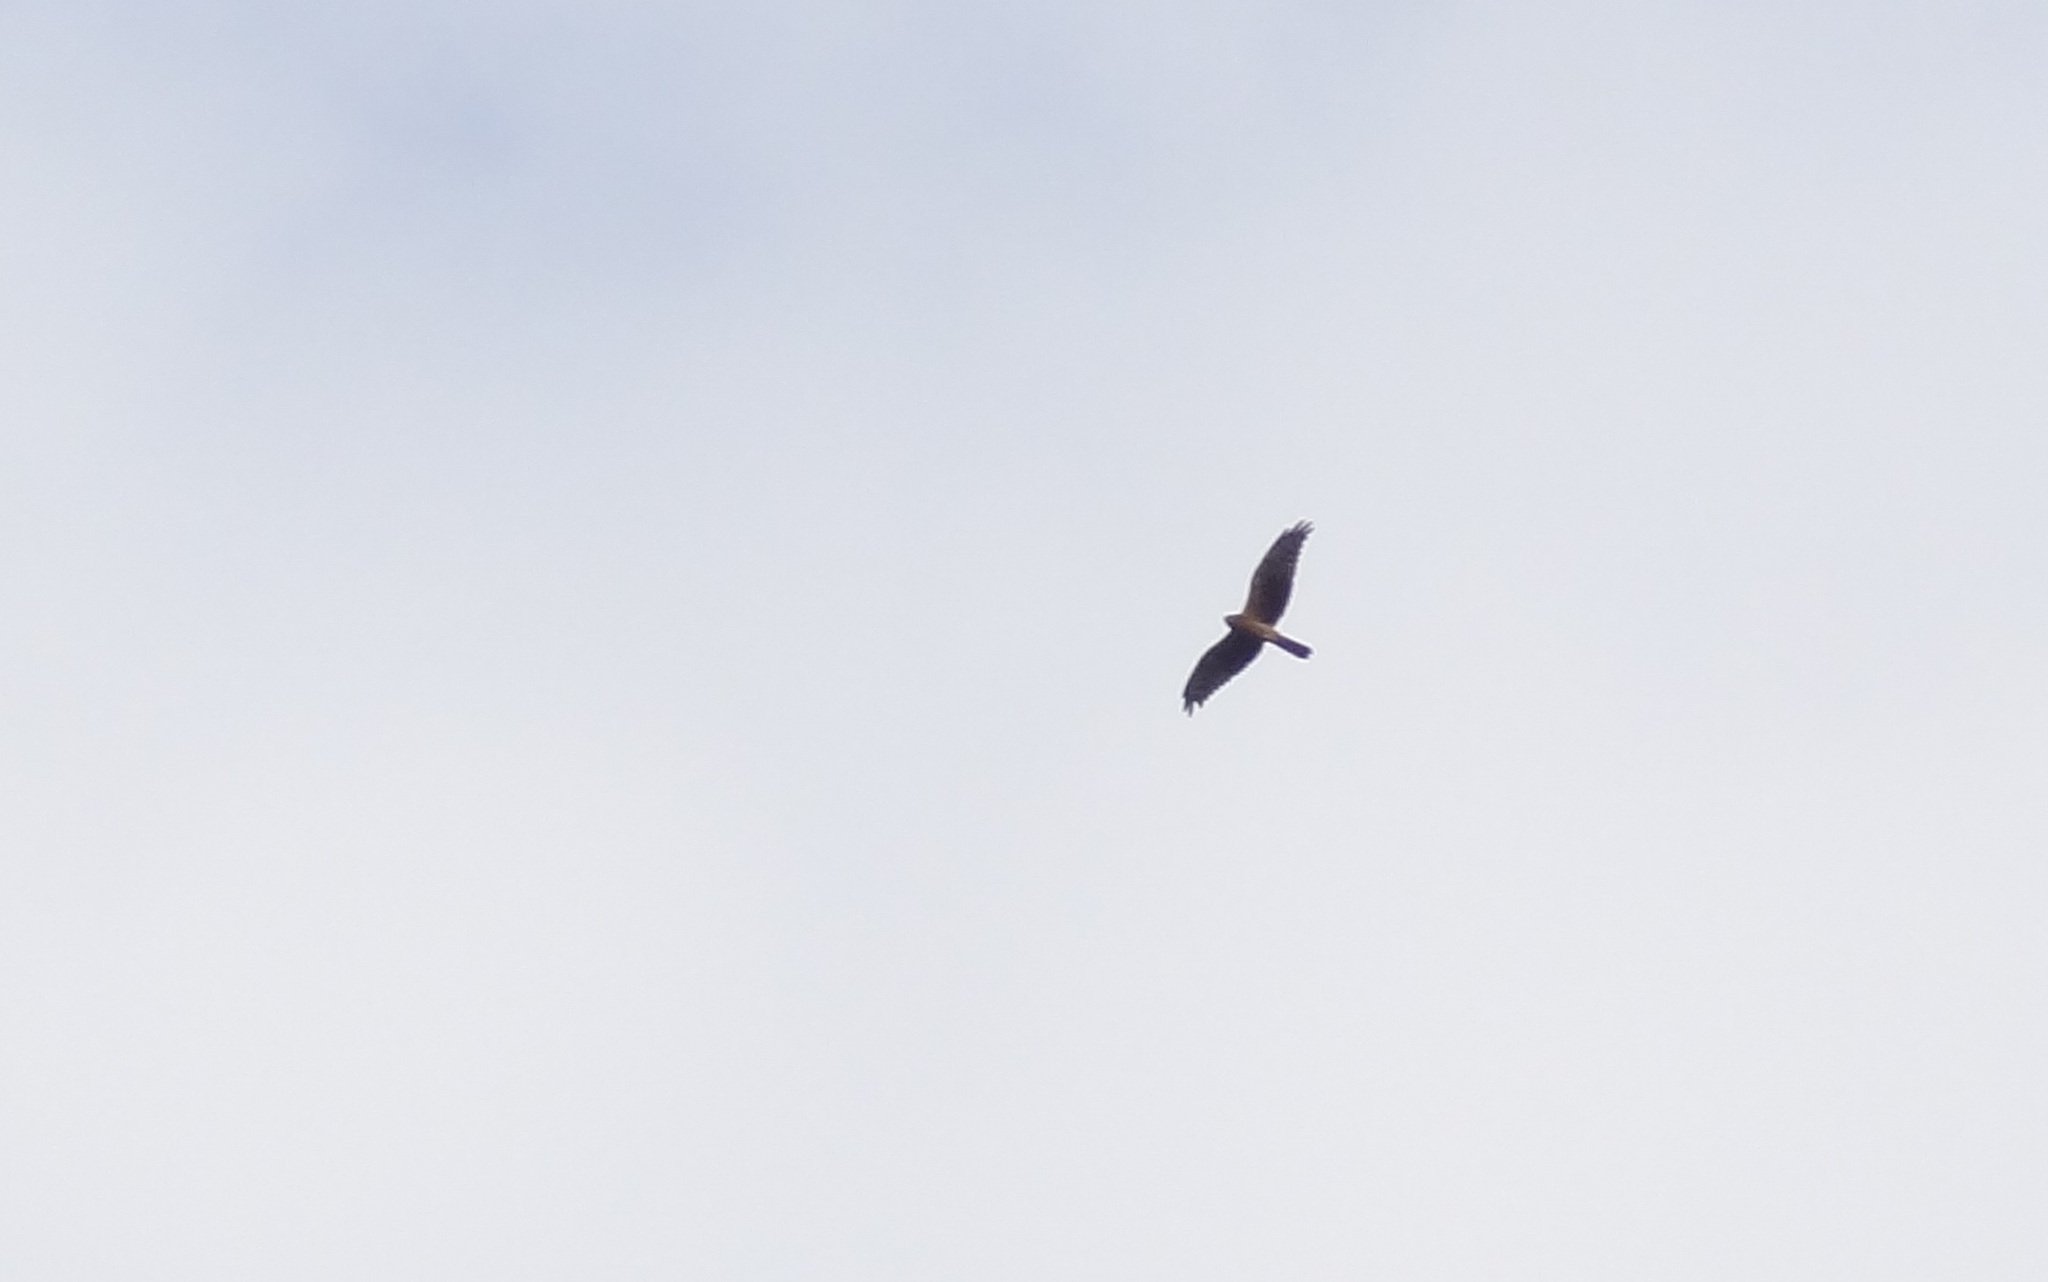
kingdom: Animalia
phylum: Chordata
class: Aves
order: Accipitriformes
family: Accipitridae
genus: Circus
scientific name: Circus pygargus
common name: Montagu's harrier
